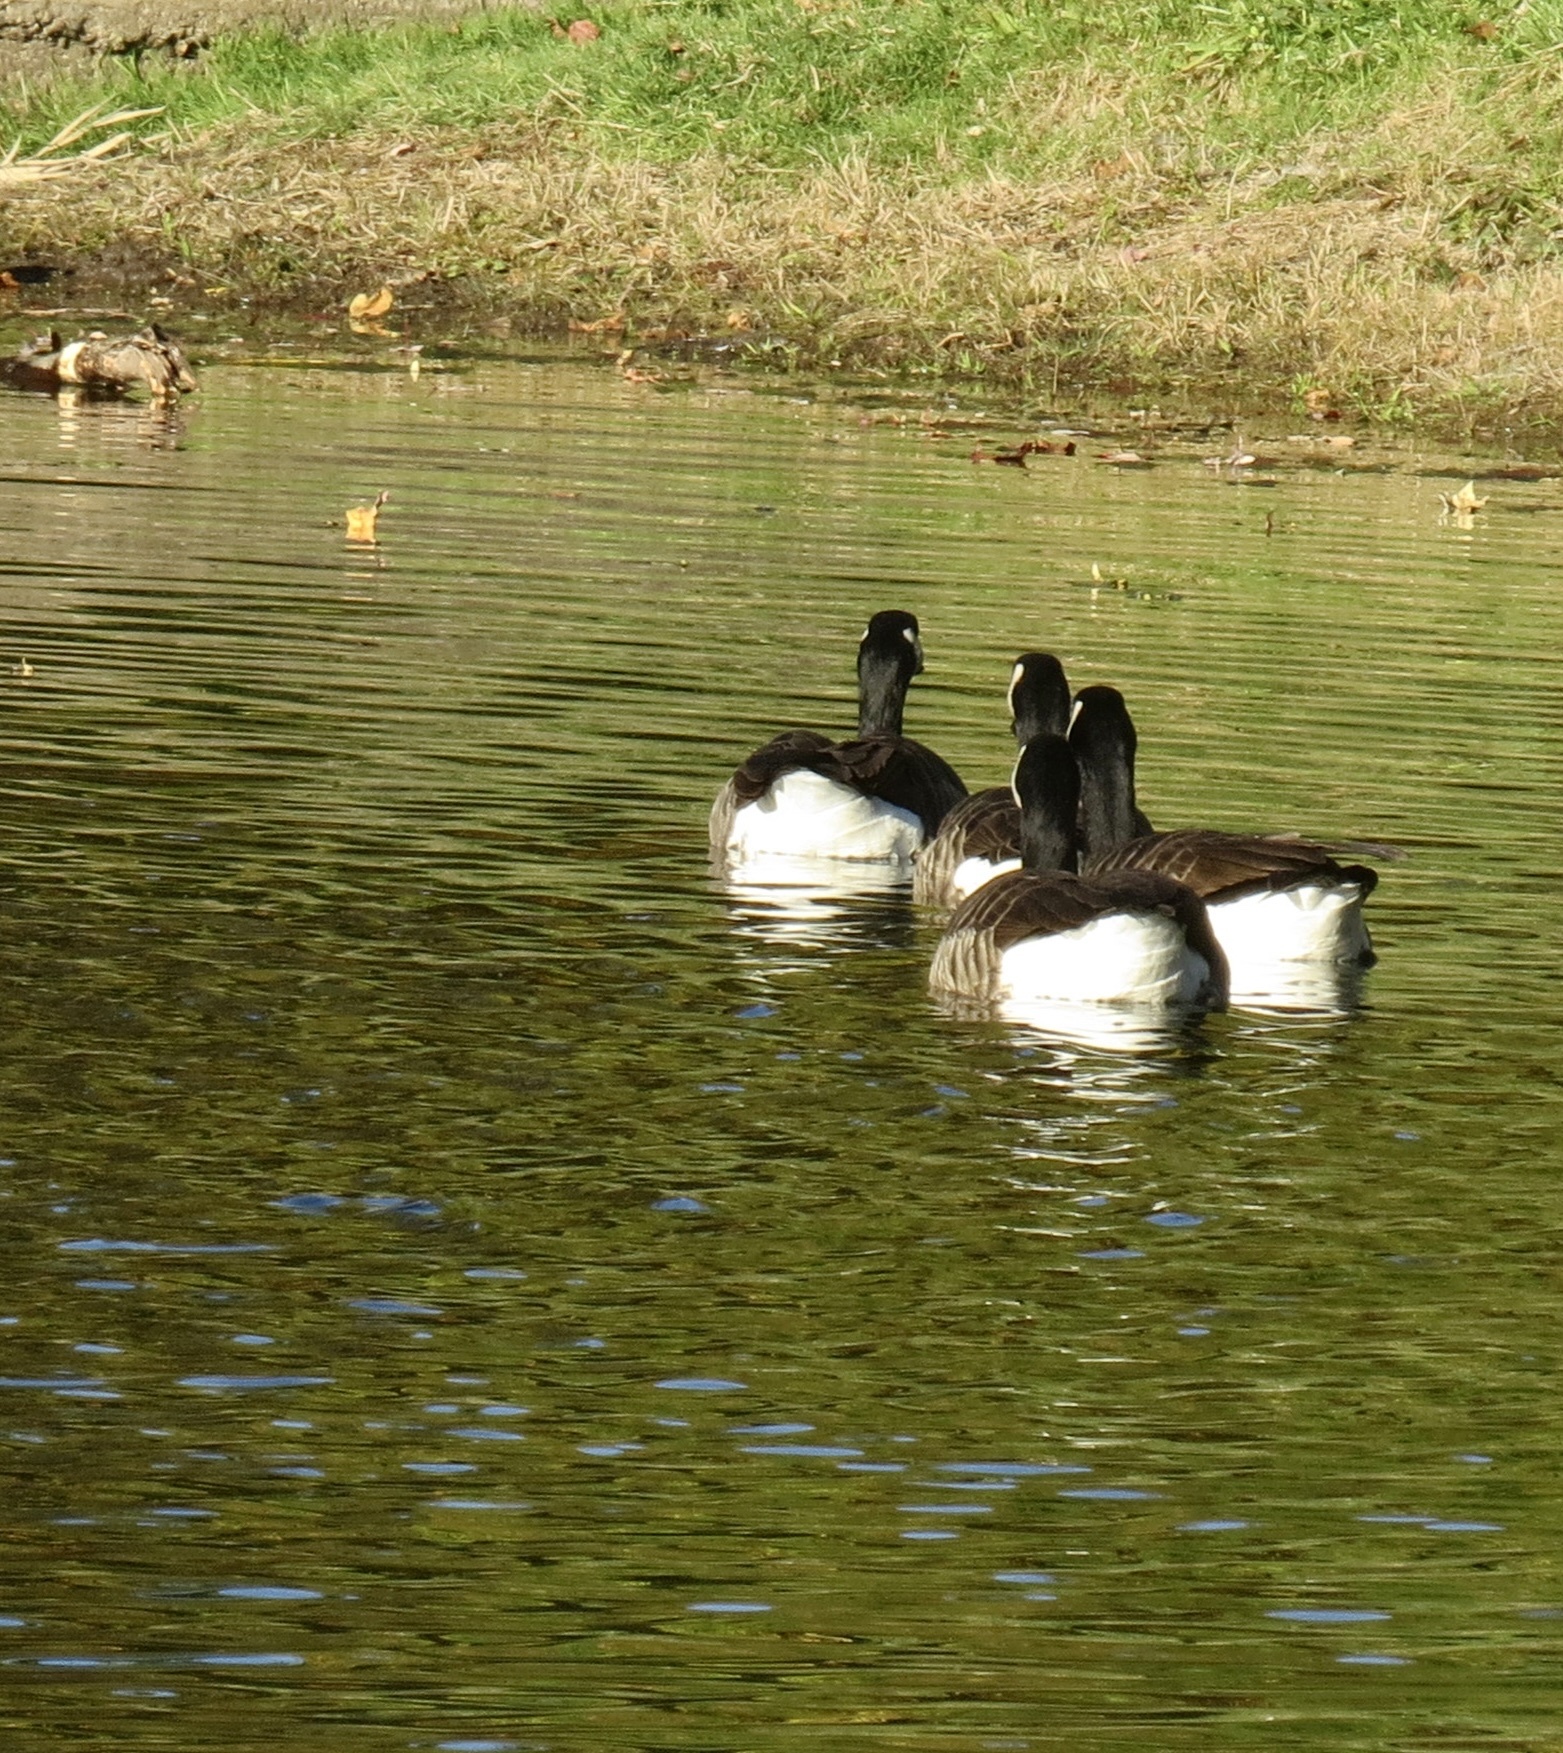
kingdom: Animalia
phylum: Chordata
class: Aves
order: Anseriformes
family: Anatidae
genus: Branta
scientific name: Branta canadensis
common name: Canada goose
